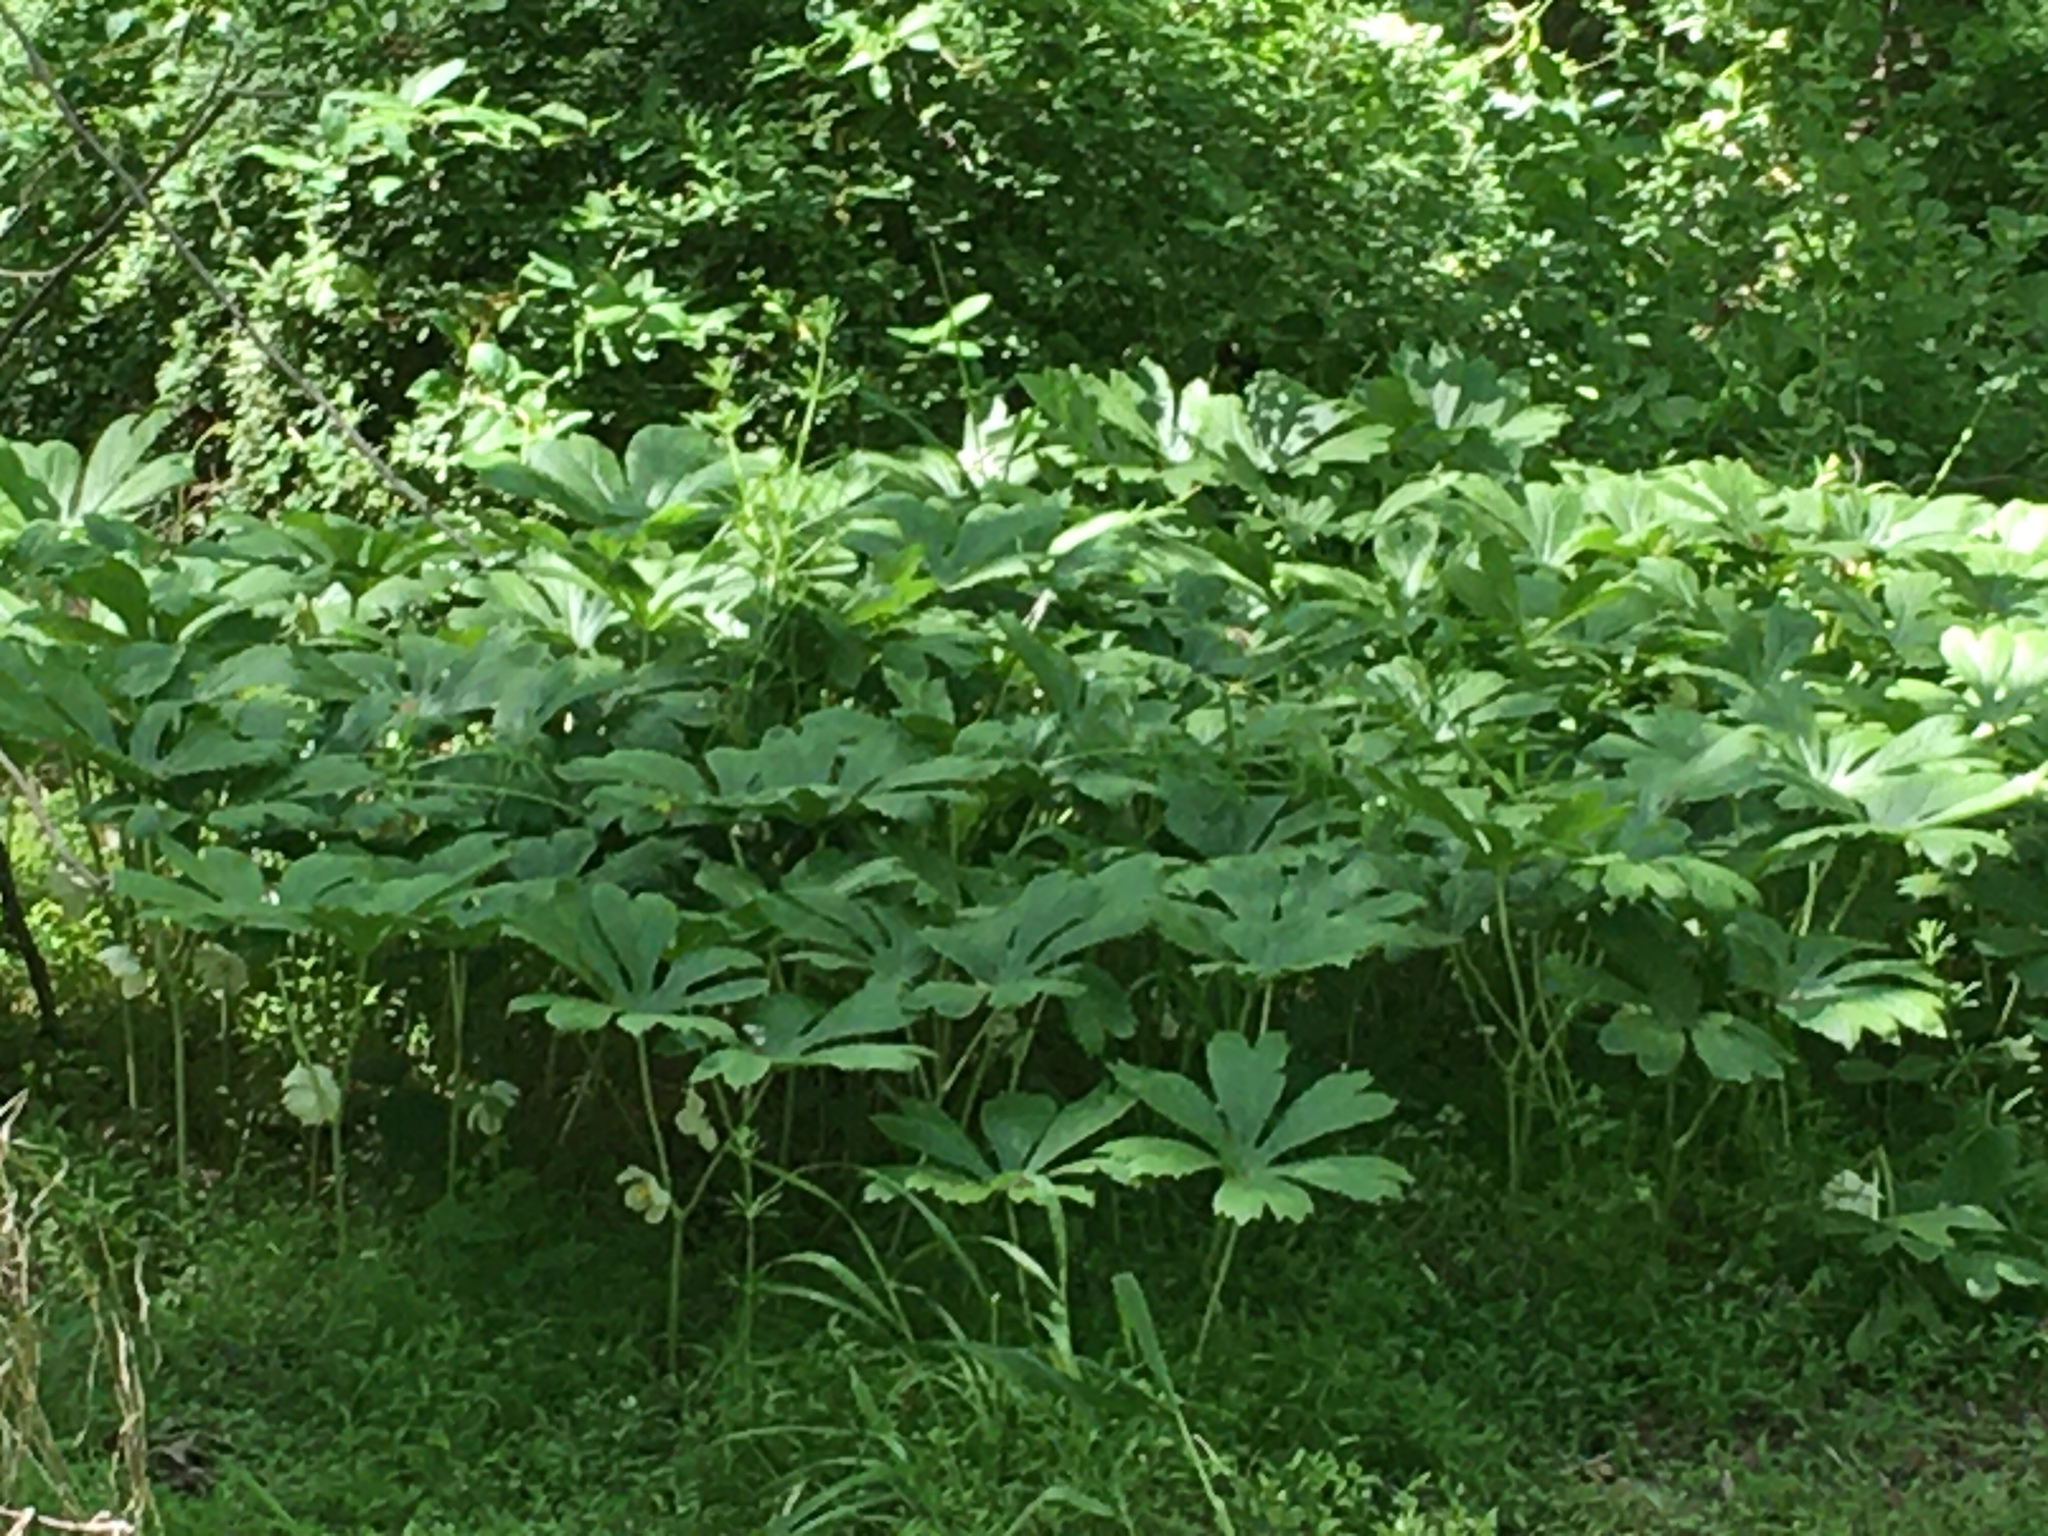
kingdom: Plantae
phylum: Tracheophyta
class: Magnoliopsida
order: Ranunculales
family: Berberidaceae
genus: Podophyllum
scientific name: Podophyllum peltatum
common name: Wild mandrake
